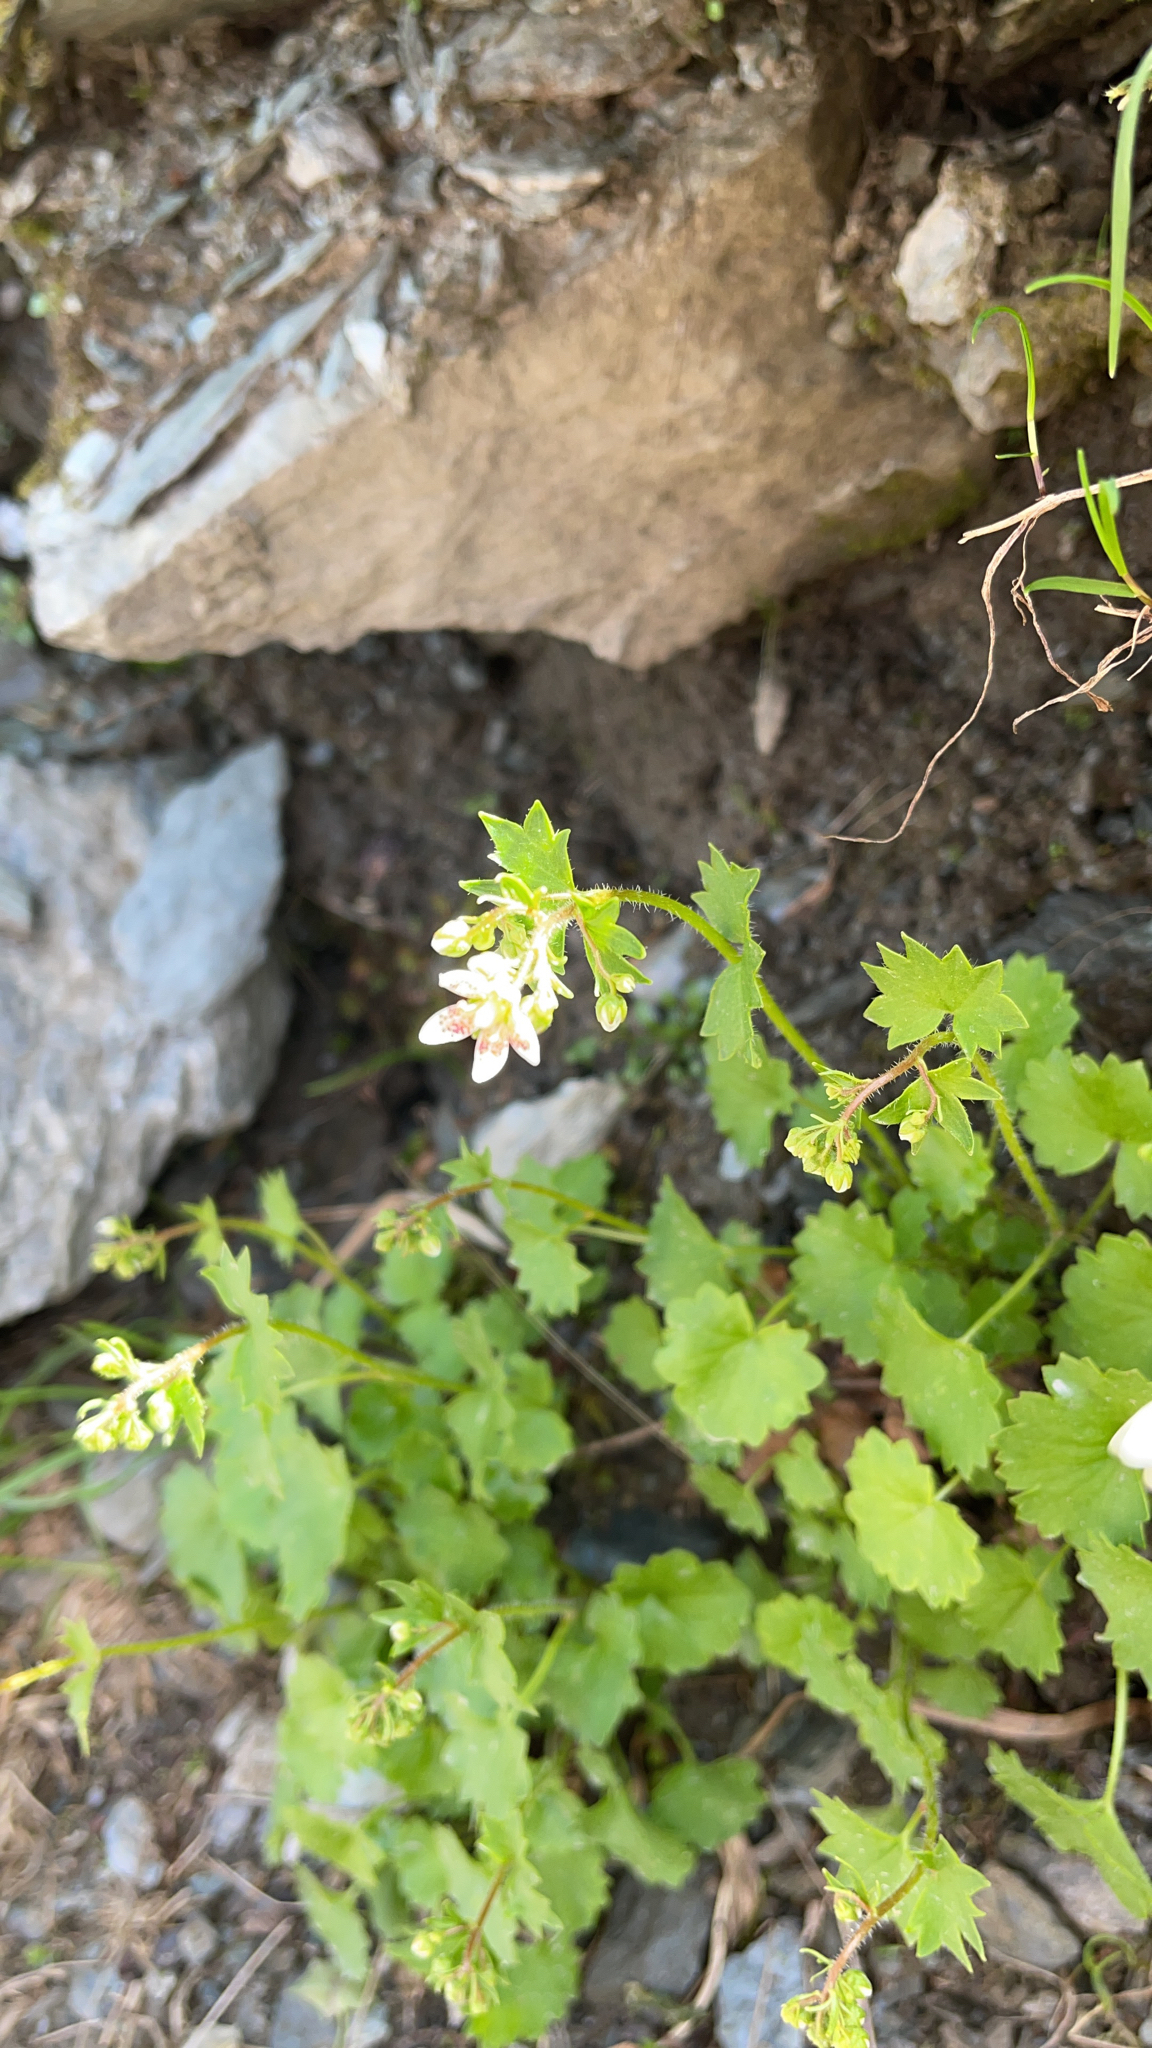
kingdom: Plantae
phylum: Tracheophyta
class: Magnoliopsida
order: Saxifragales
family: Saxifragaceae
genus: Saxifraga
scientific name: Saxifraga rotundifolia
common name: Round-leaved saxifrage
